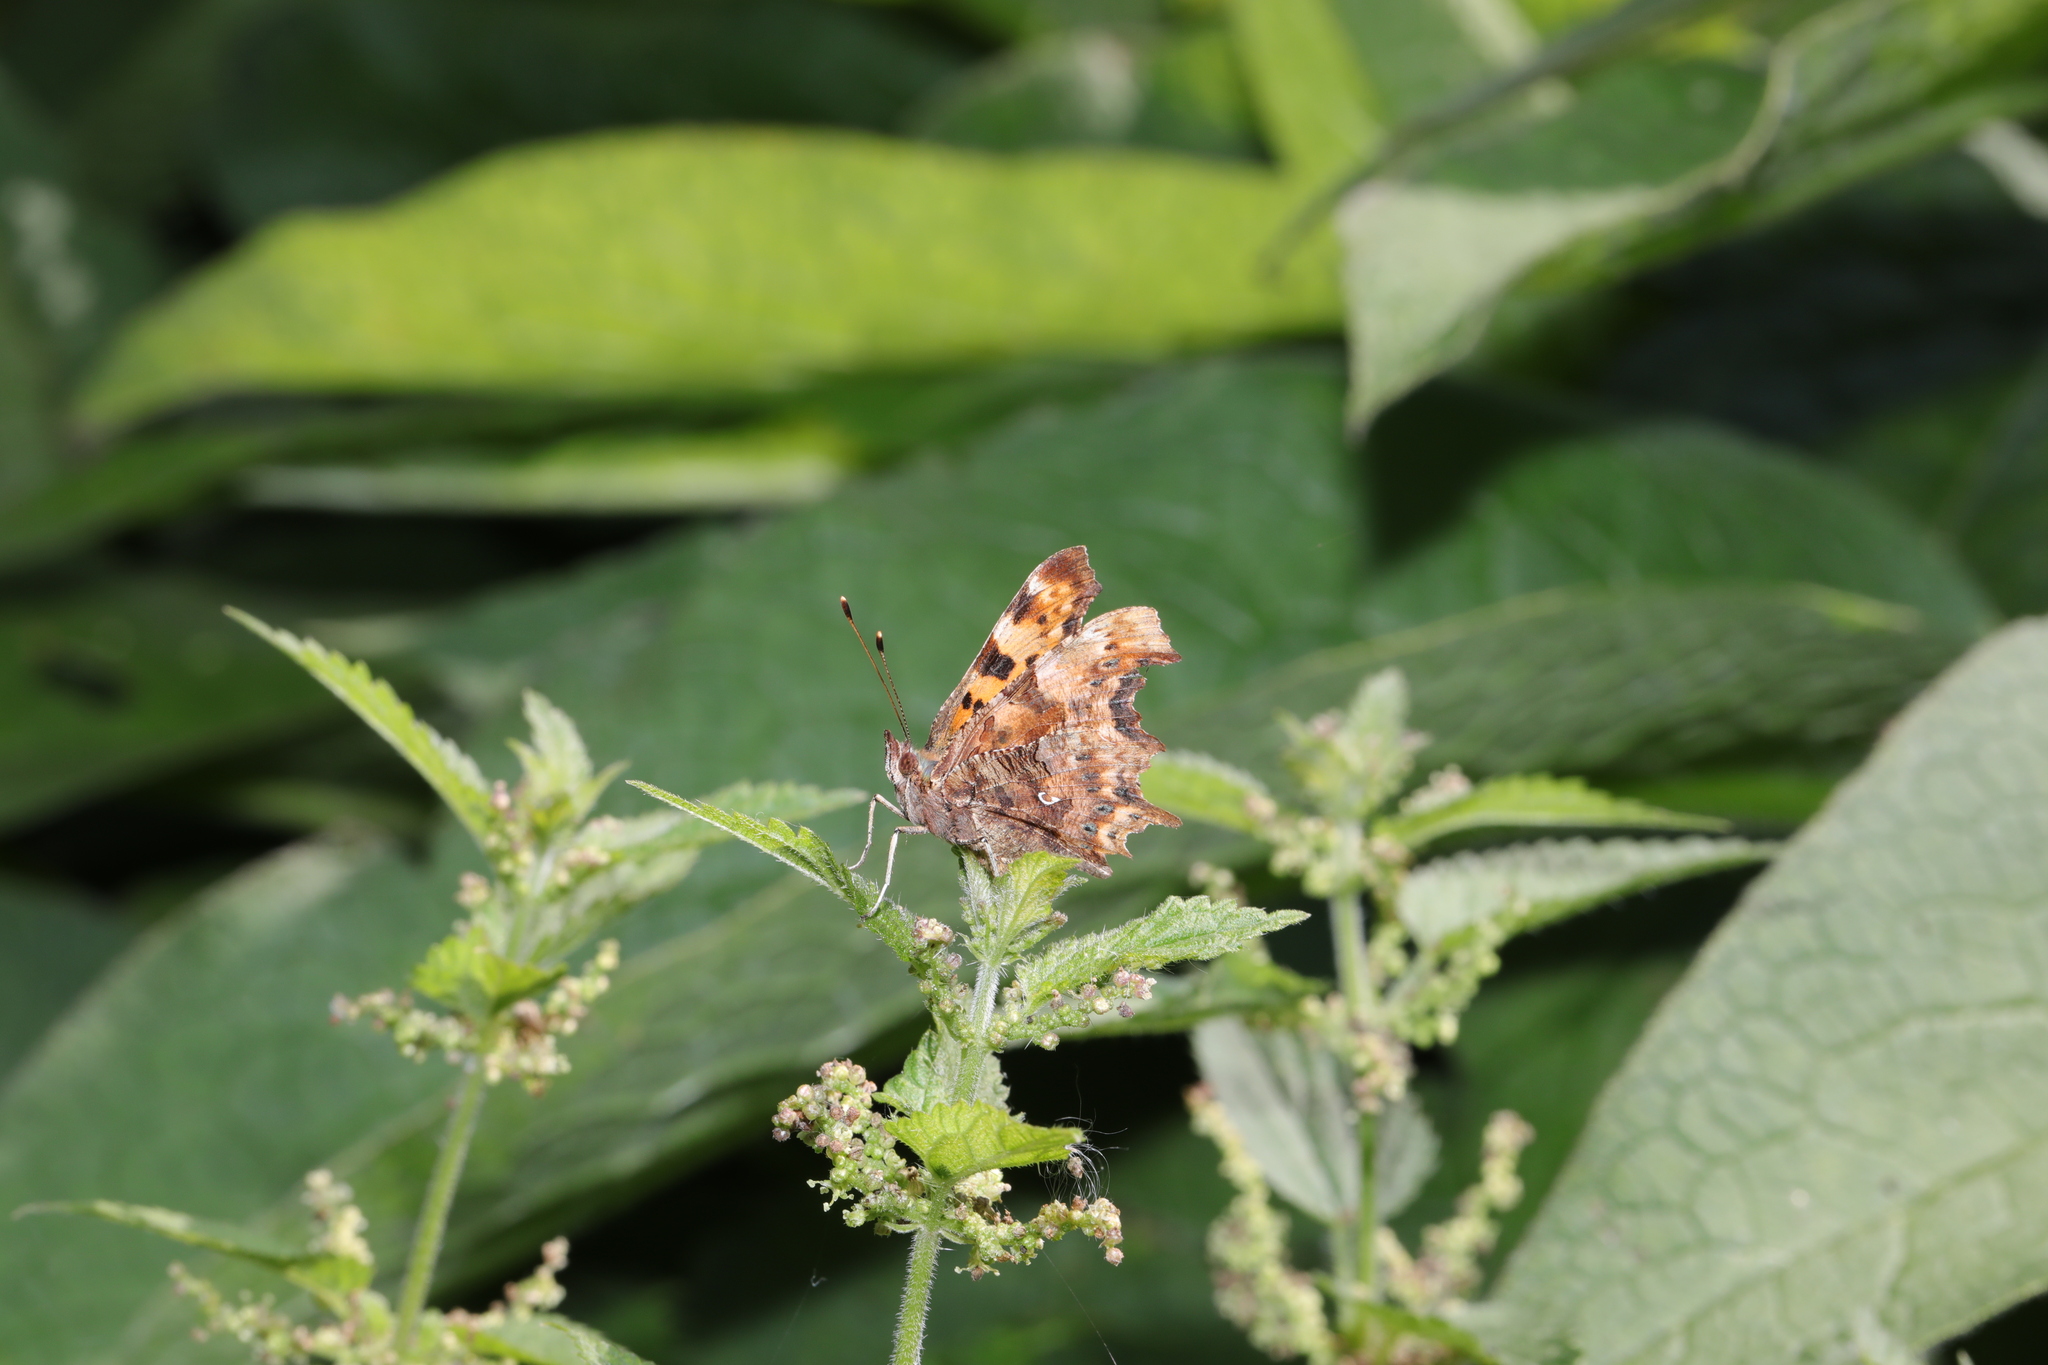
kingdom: Animalia
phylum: Arthropoda
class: Insecta
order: Lepidoptera
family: Nymphalidae
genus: Polygonia
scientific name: Polygonia c-album
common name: Comma
